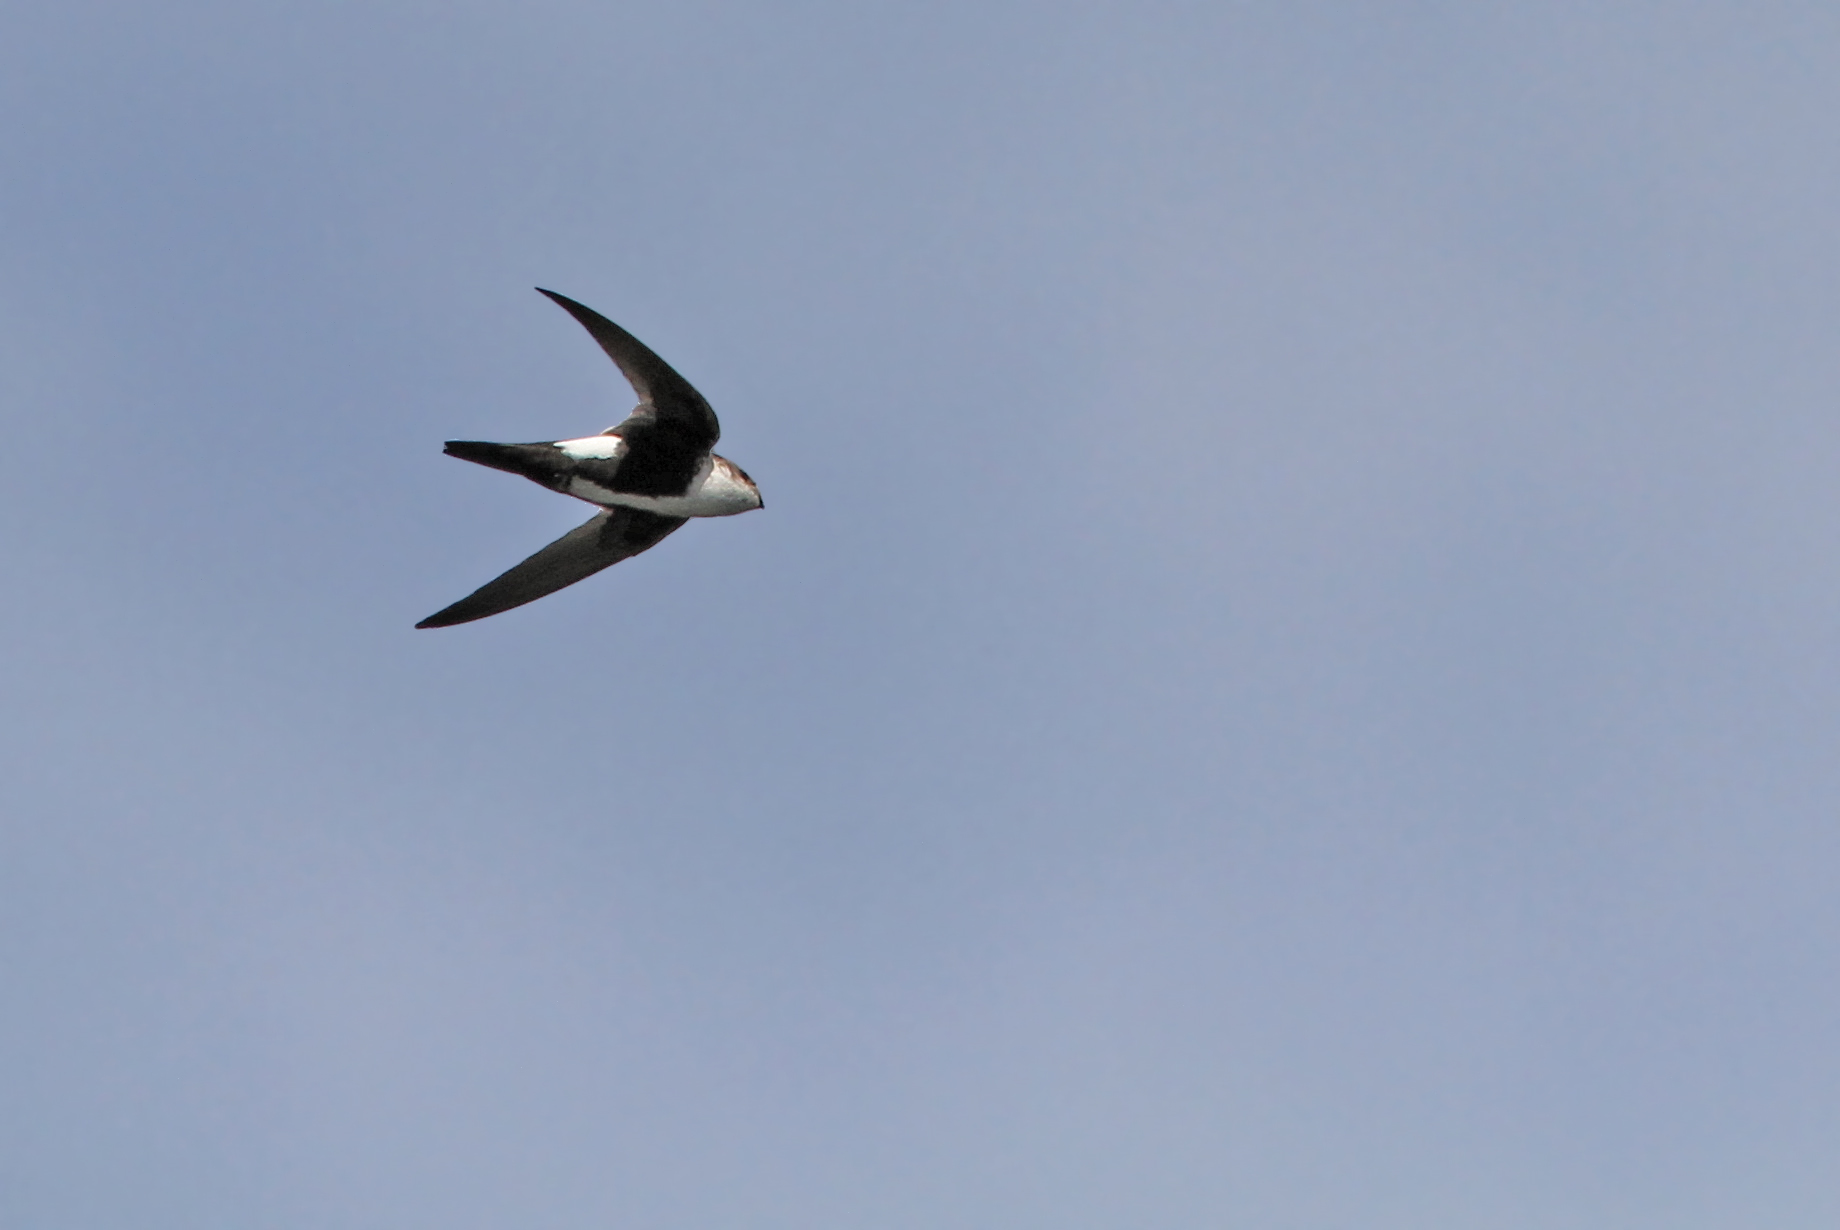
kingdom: Animalia
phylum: Chordata
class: Aves
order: Apodiformes
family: Apodidae
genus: Aeronautes
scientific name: Aeronautes saxatalis
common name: White-throated swift
